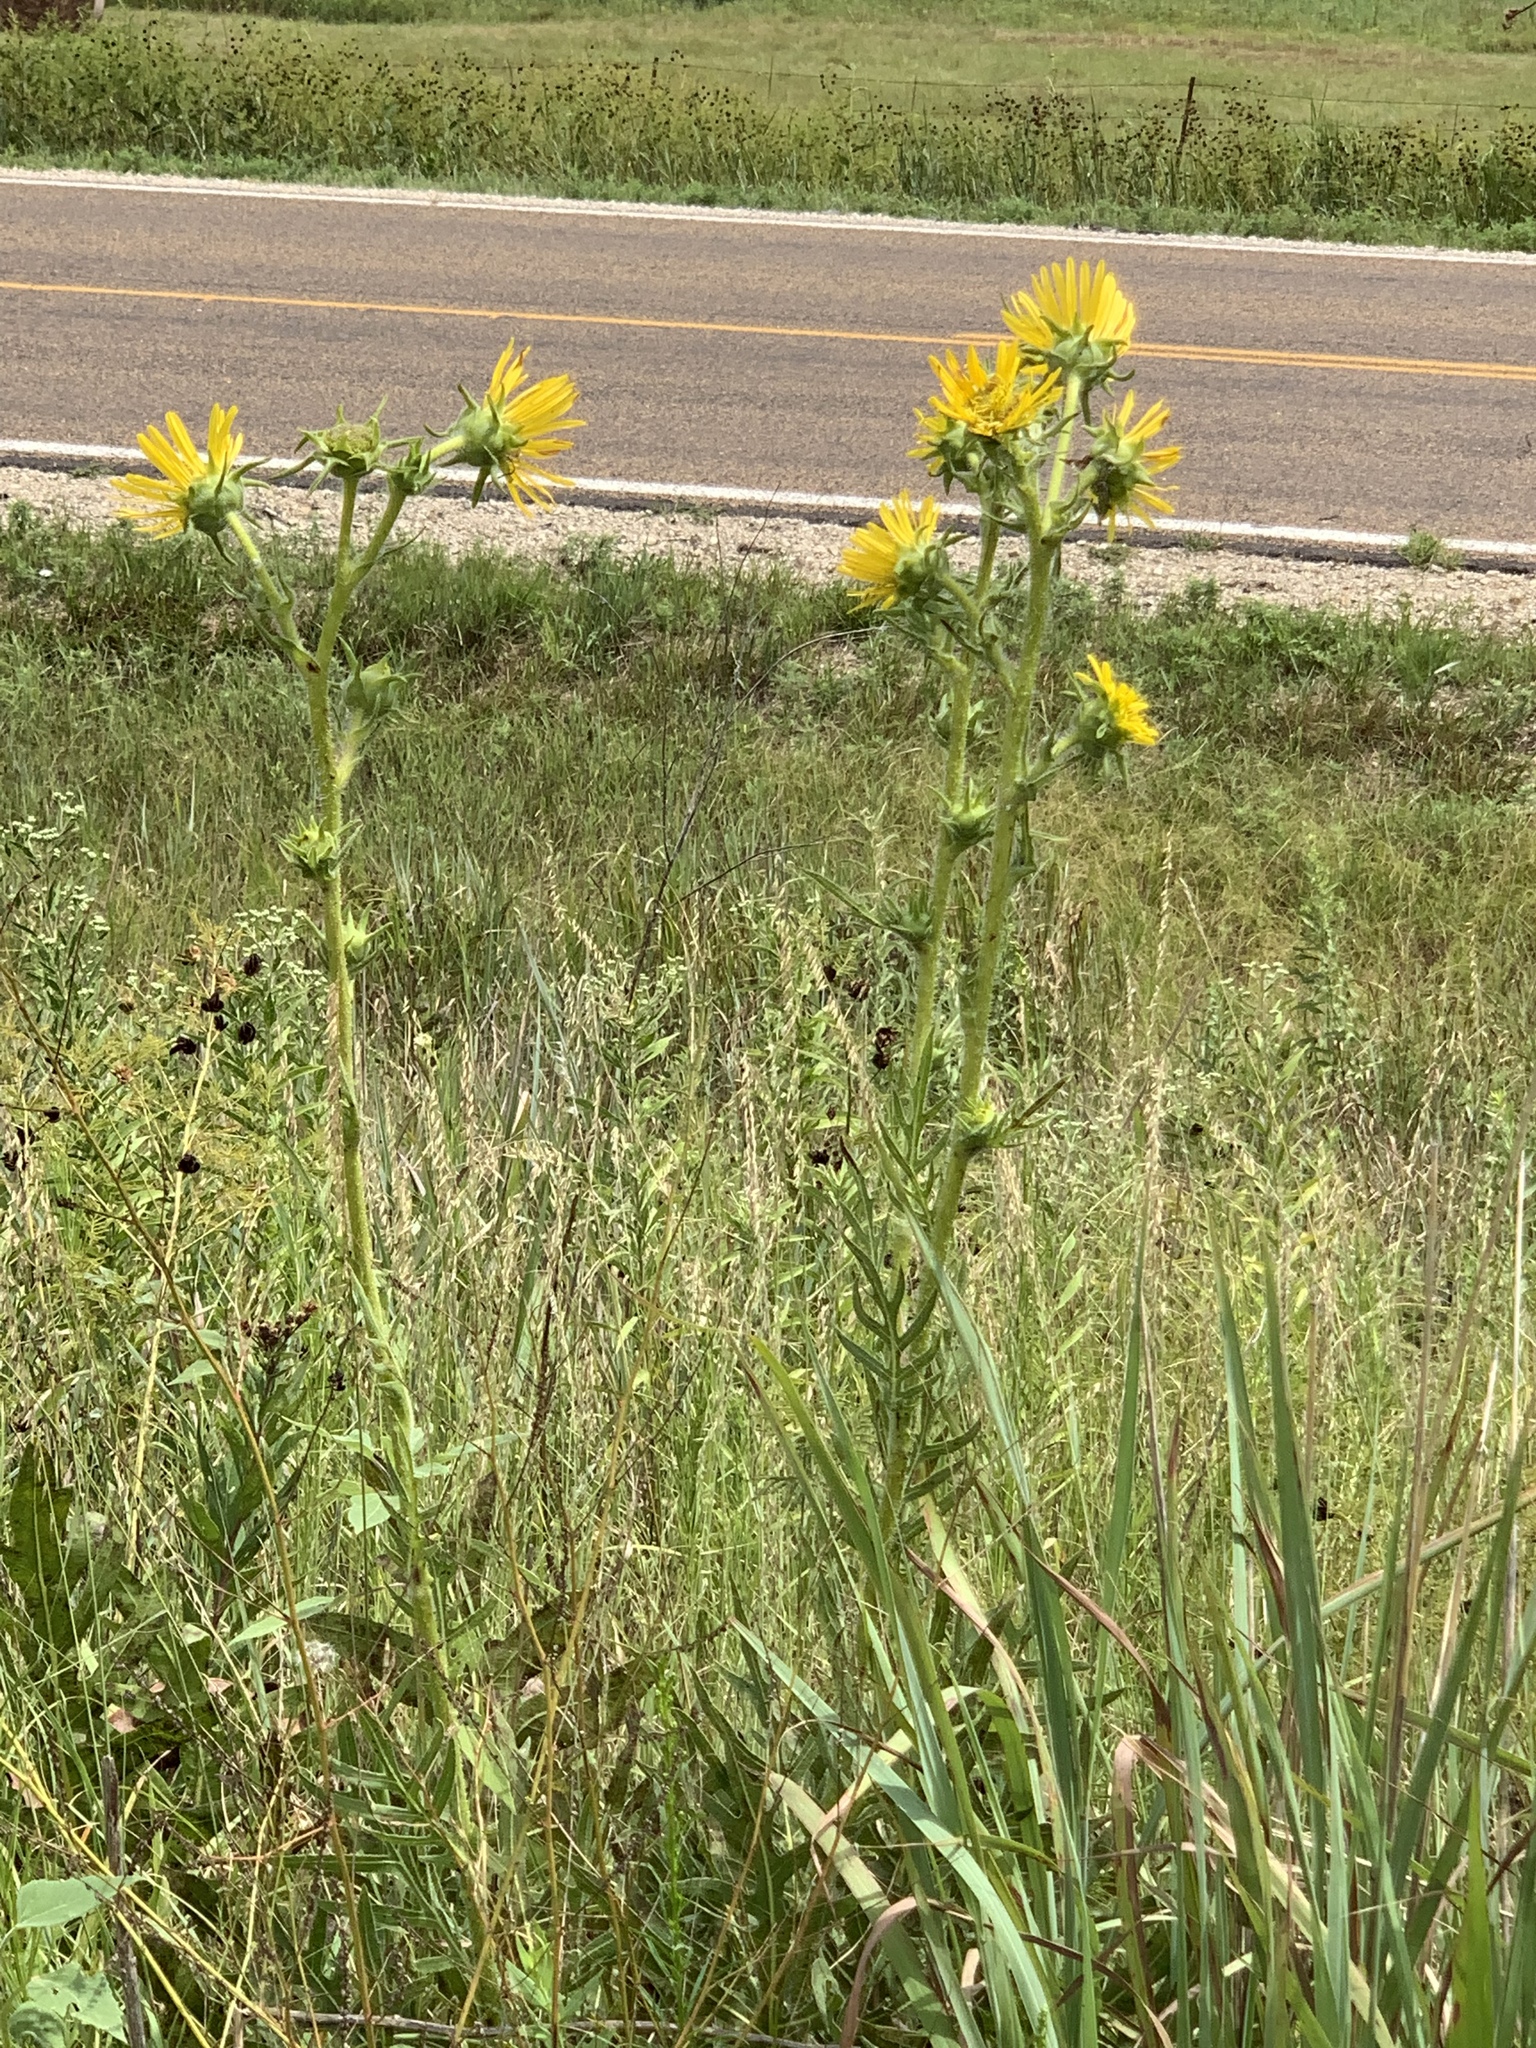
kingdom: Plantae
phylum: Tracheophyta
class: Magnoliopsida
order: Asterales
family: Asteraceae
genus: Silphium
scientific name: Silphium laciniatum
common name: Polarplant
